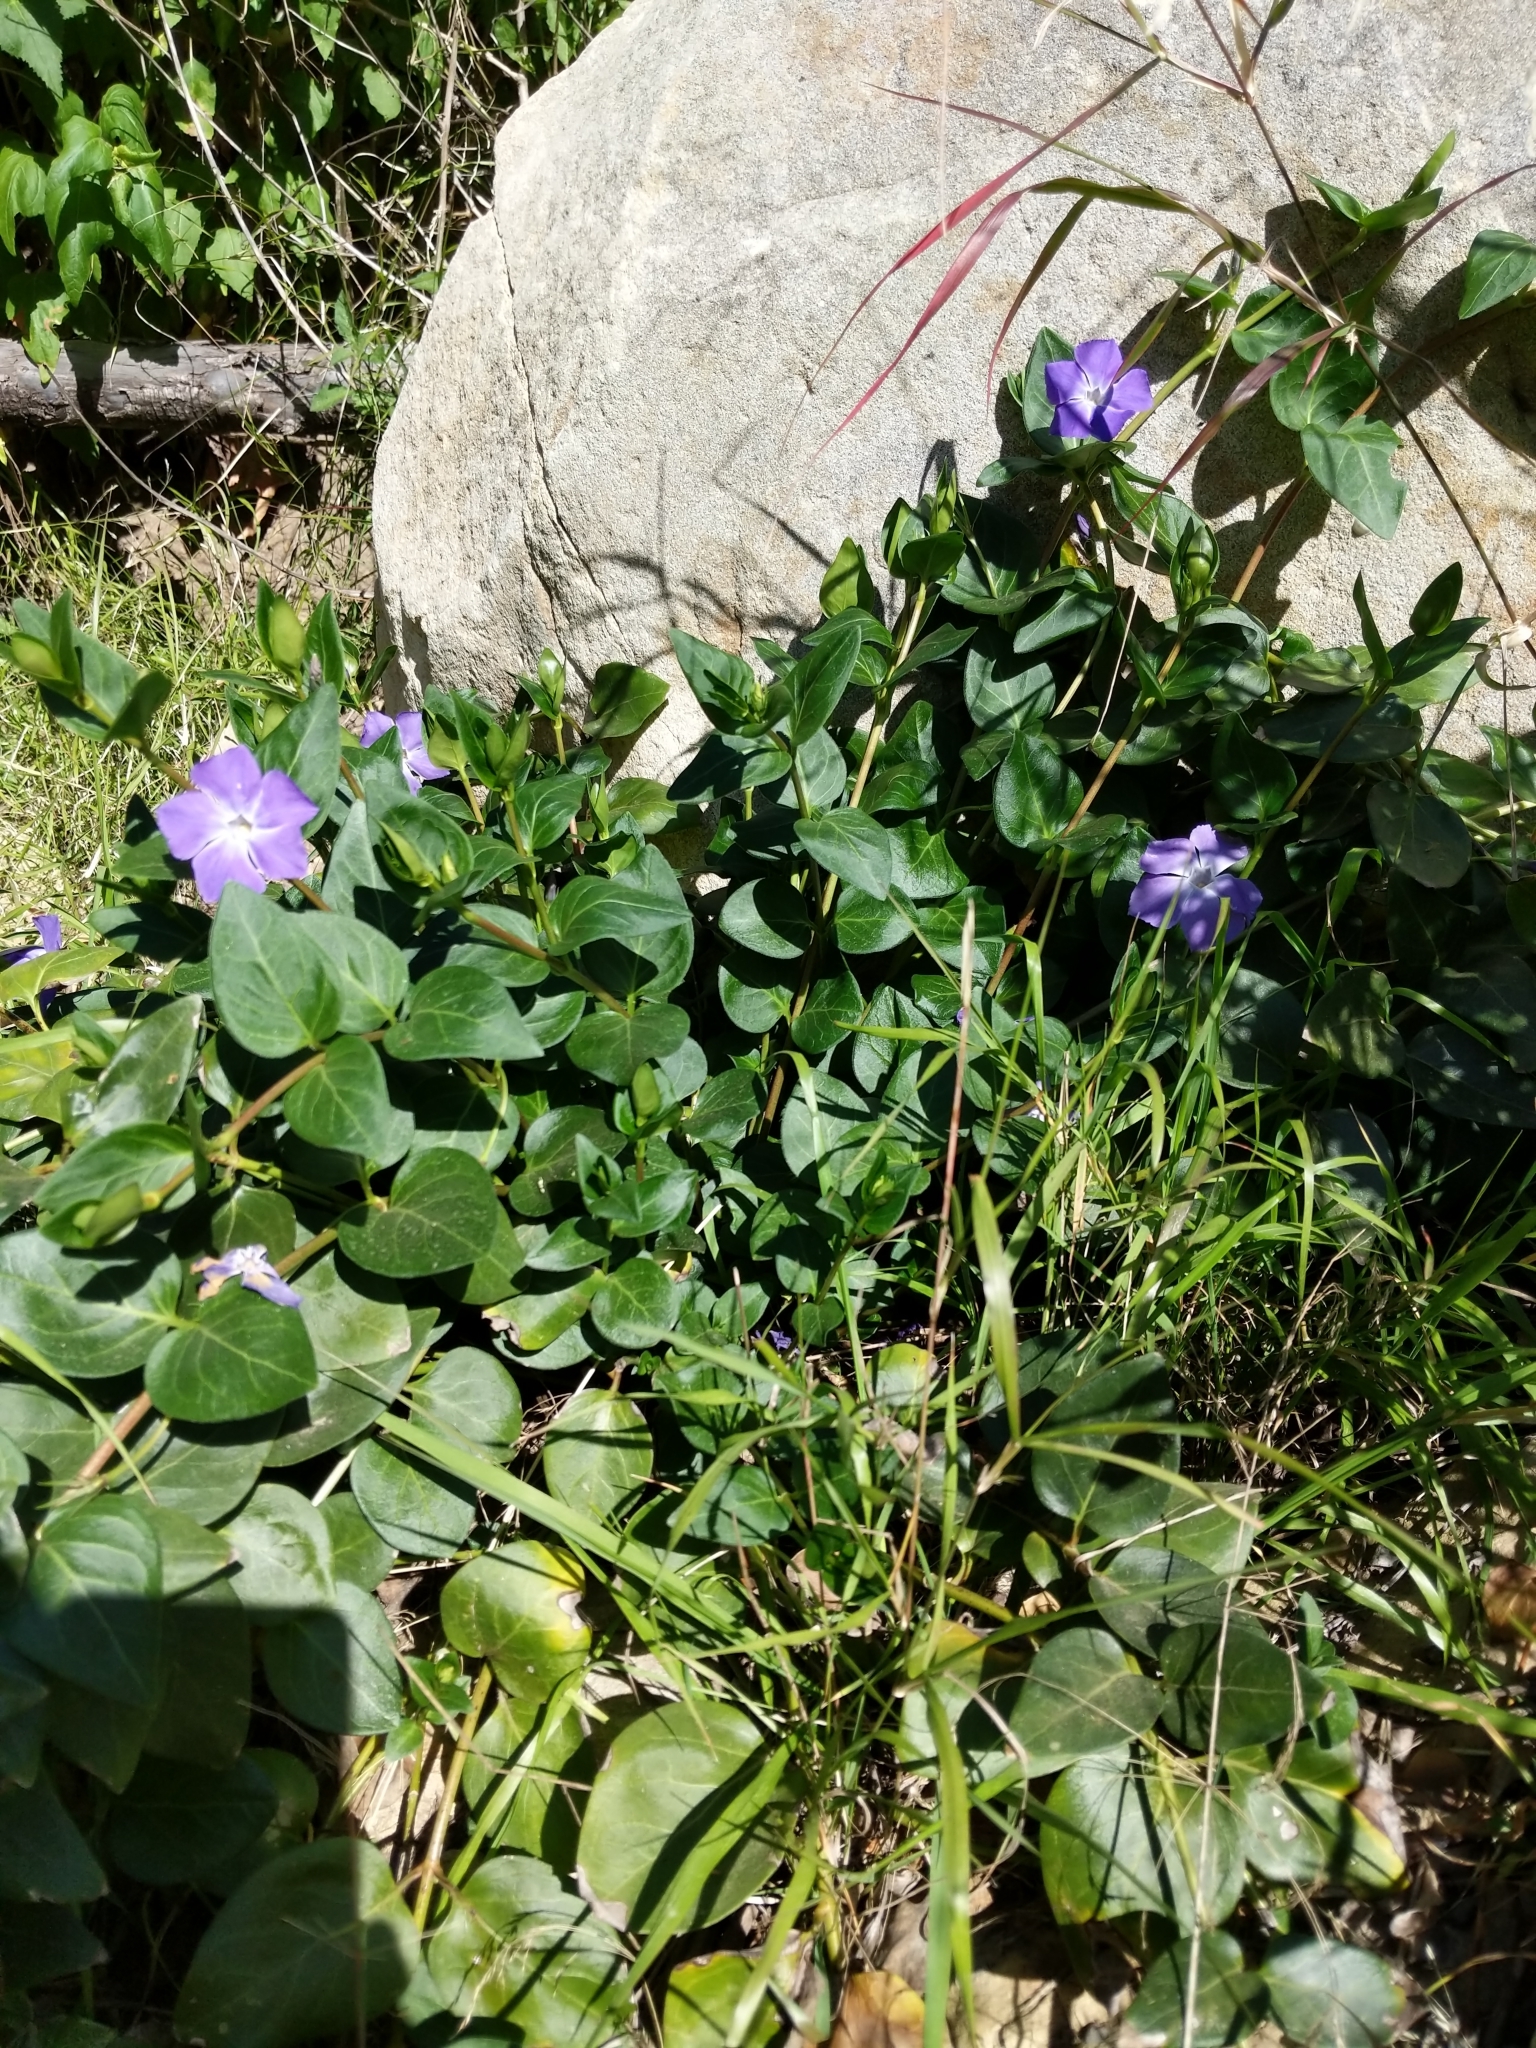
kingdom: Plantae
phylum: Tracheophyta
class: Magnoliopsida
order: Gentianales
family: Apocynaceae
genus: Vinca
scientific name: Vinca major
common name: Greater periwinkle
